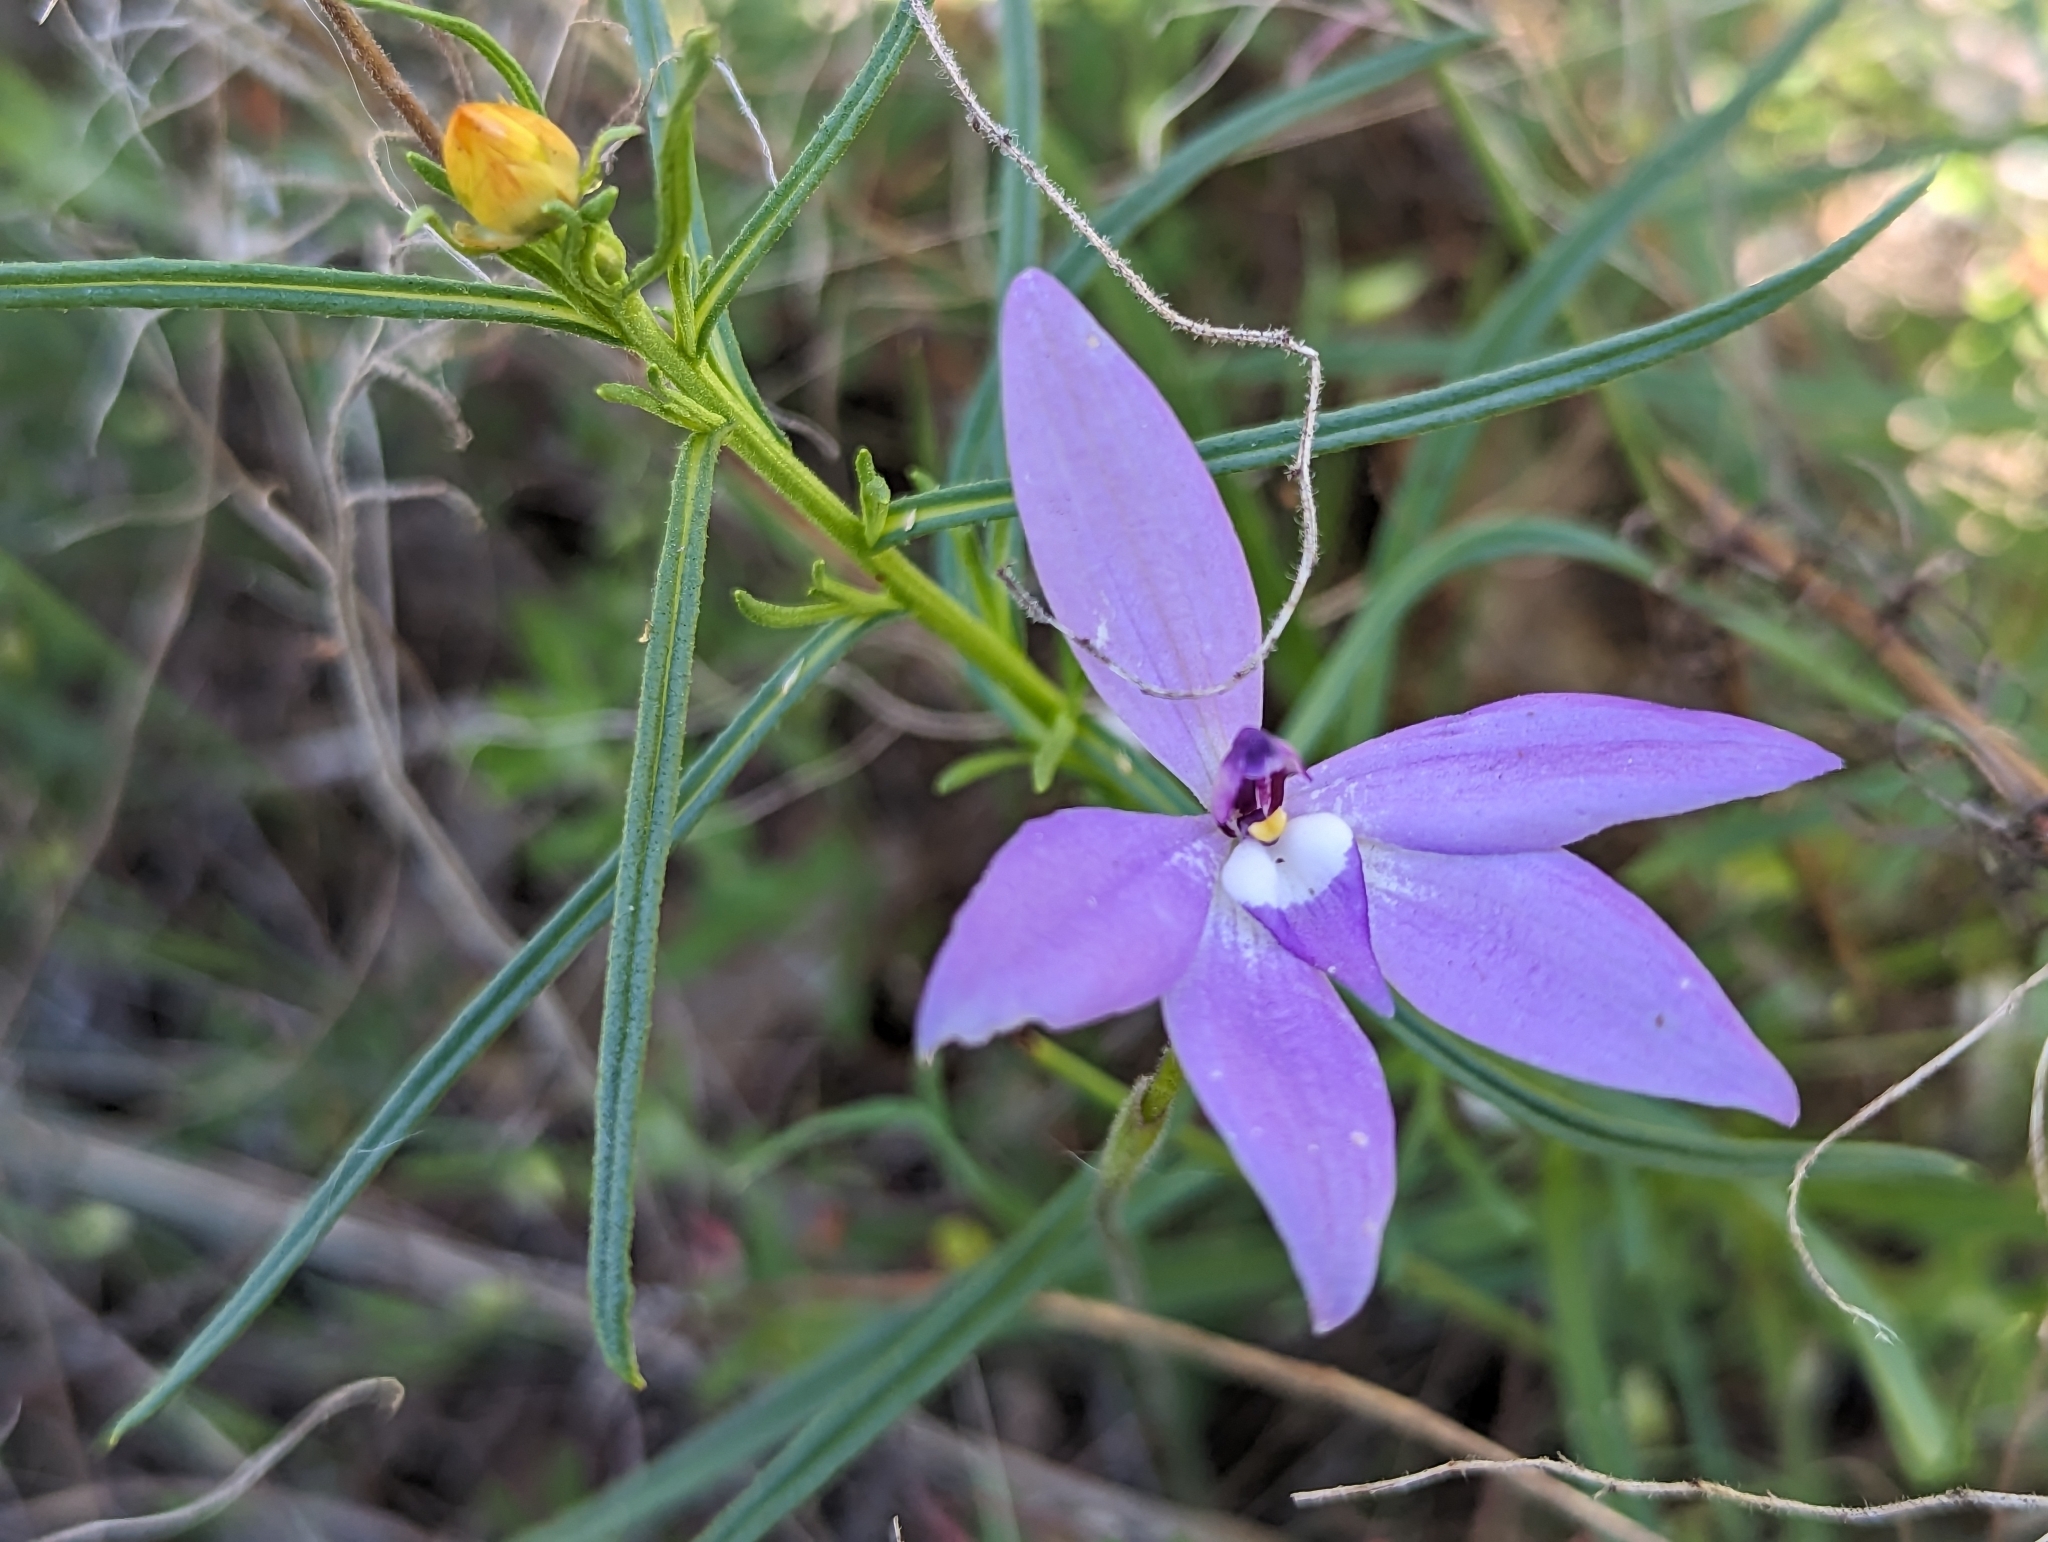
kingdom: Plantae
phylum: Tracheophyta
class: Liliopsida
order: Asparagales
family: Orchidaceae
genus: Caladenia
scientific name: Caladenia major
